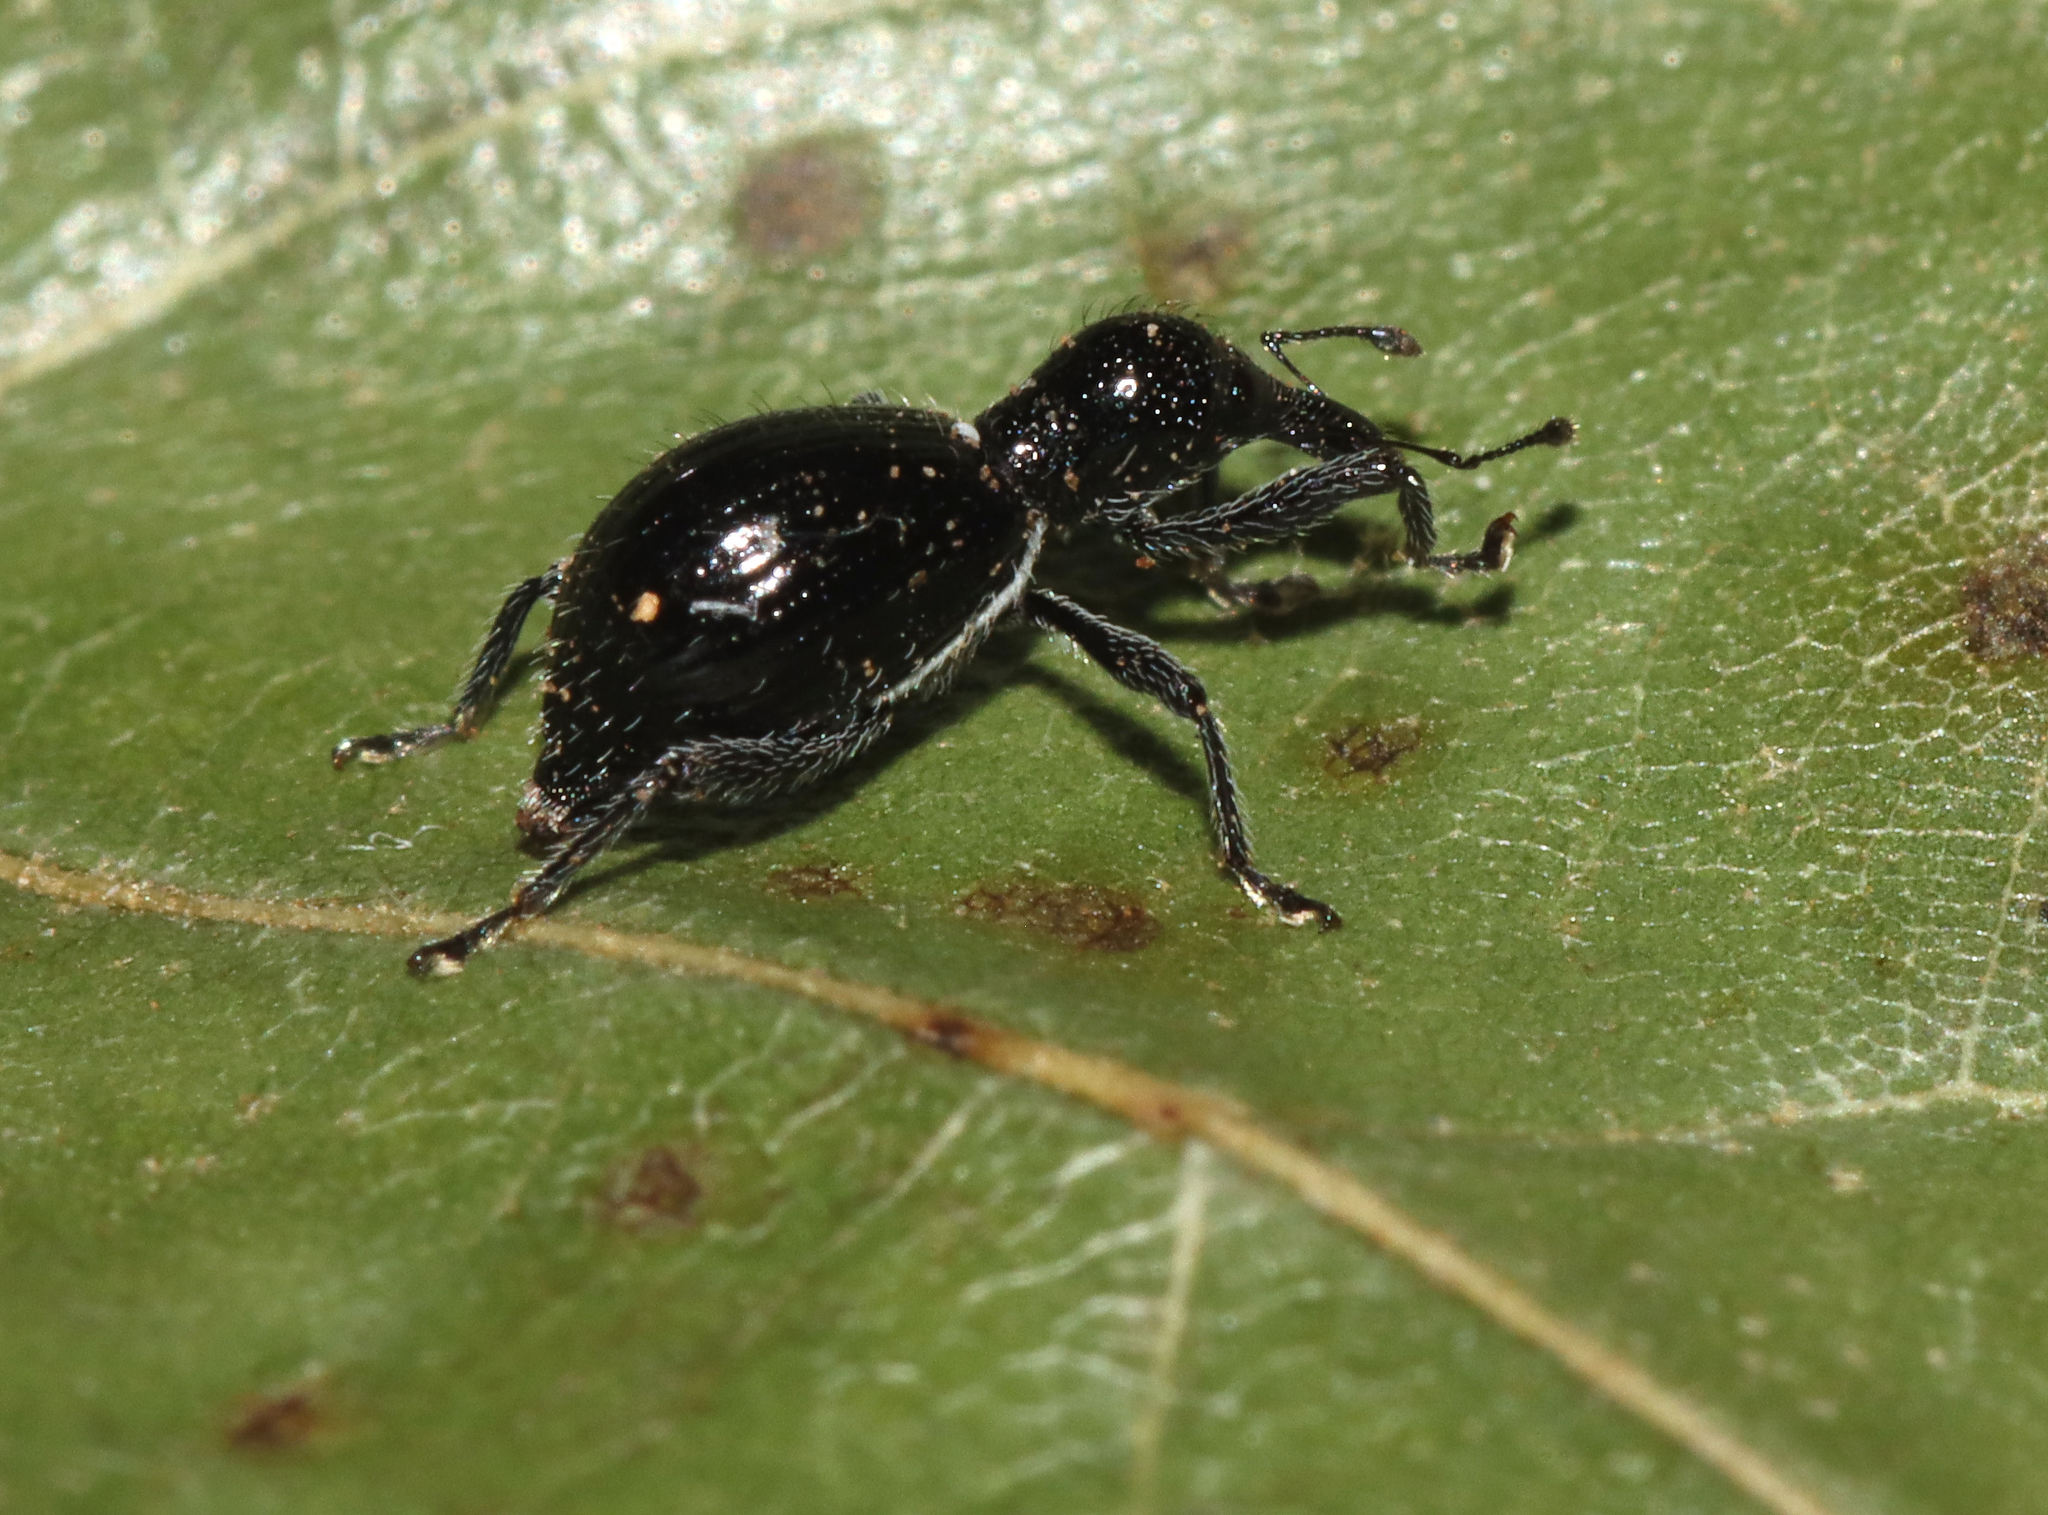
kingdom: Animalia
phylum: Arthropoda
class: Insecta
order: Coleoptera
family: Curculionidae
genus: Otidocephalus
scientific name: Otidocephalus chevrolatii
